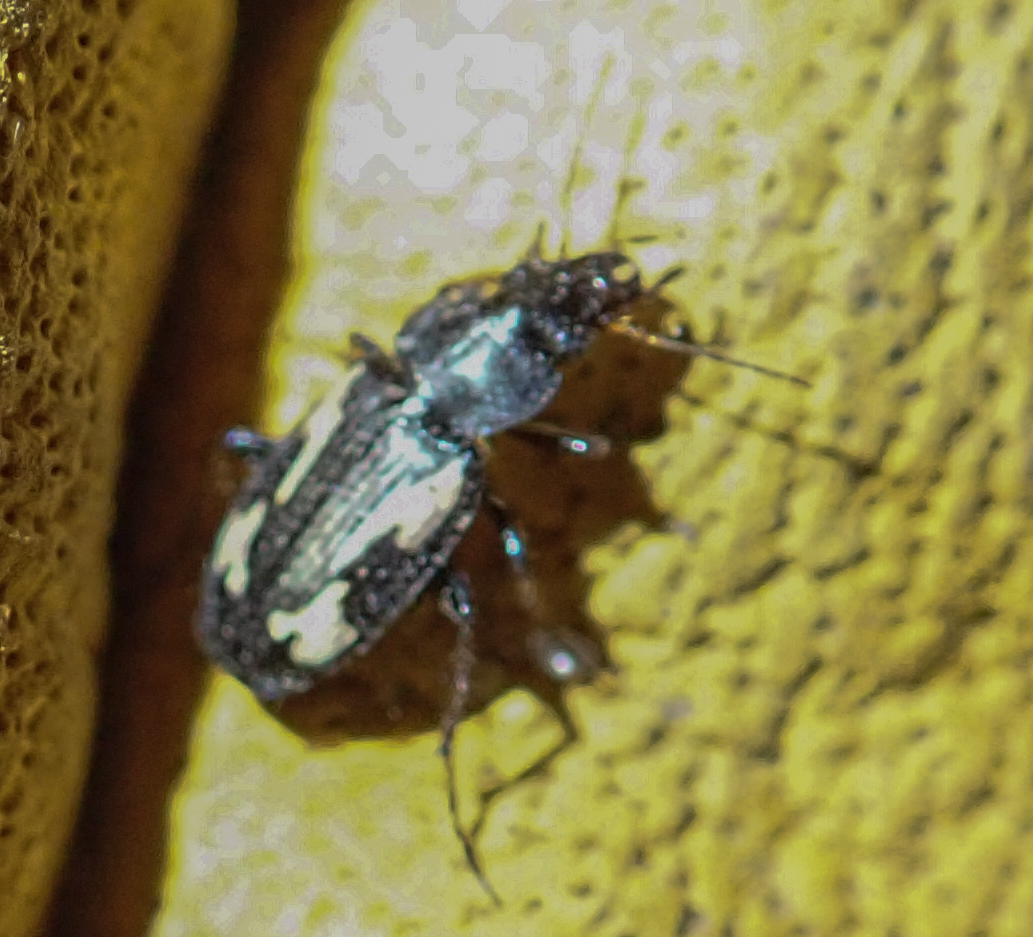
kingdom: Animalia
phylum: Arthropoda
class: Insecta
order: Coleoptera
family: Carabidae
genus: Tetragonoderus
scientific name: Tetragonoderus thunbergi
